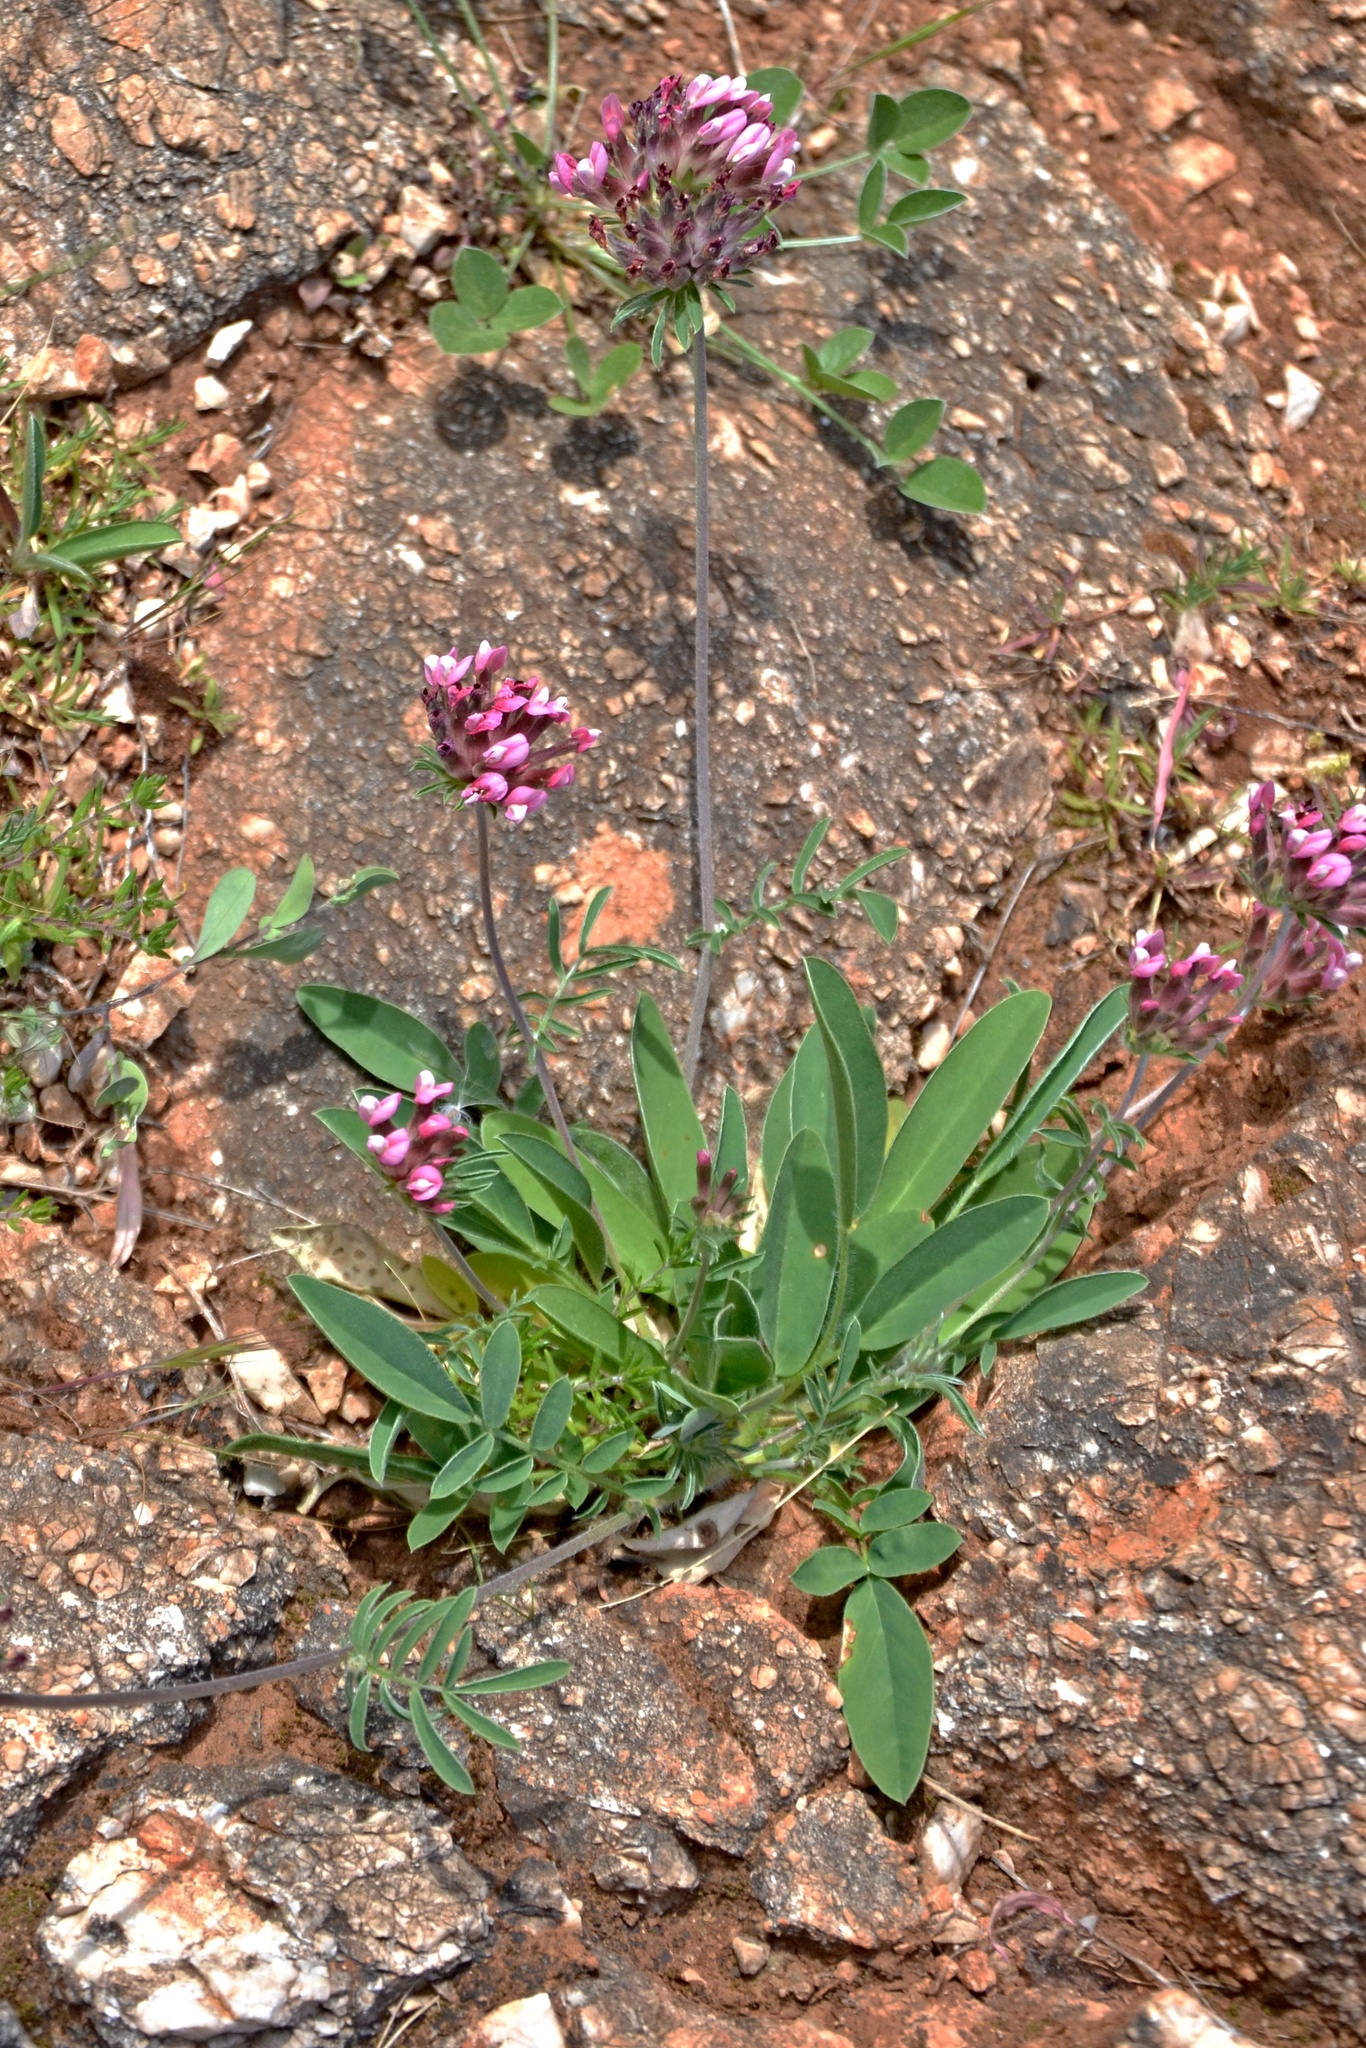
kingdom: Plantae
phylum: Tracheophyta
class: Magnoliopsida
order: Fabales
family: Fabaceae
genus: Anthyllis
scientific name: Anthyllis vulneraria
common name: Kidney vetch
